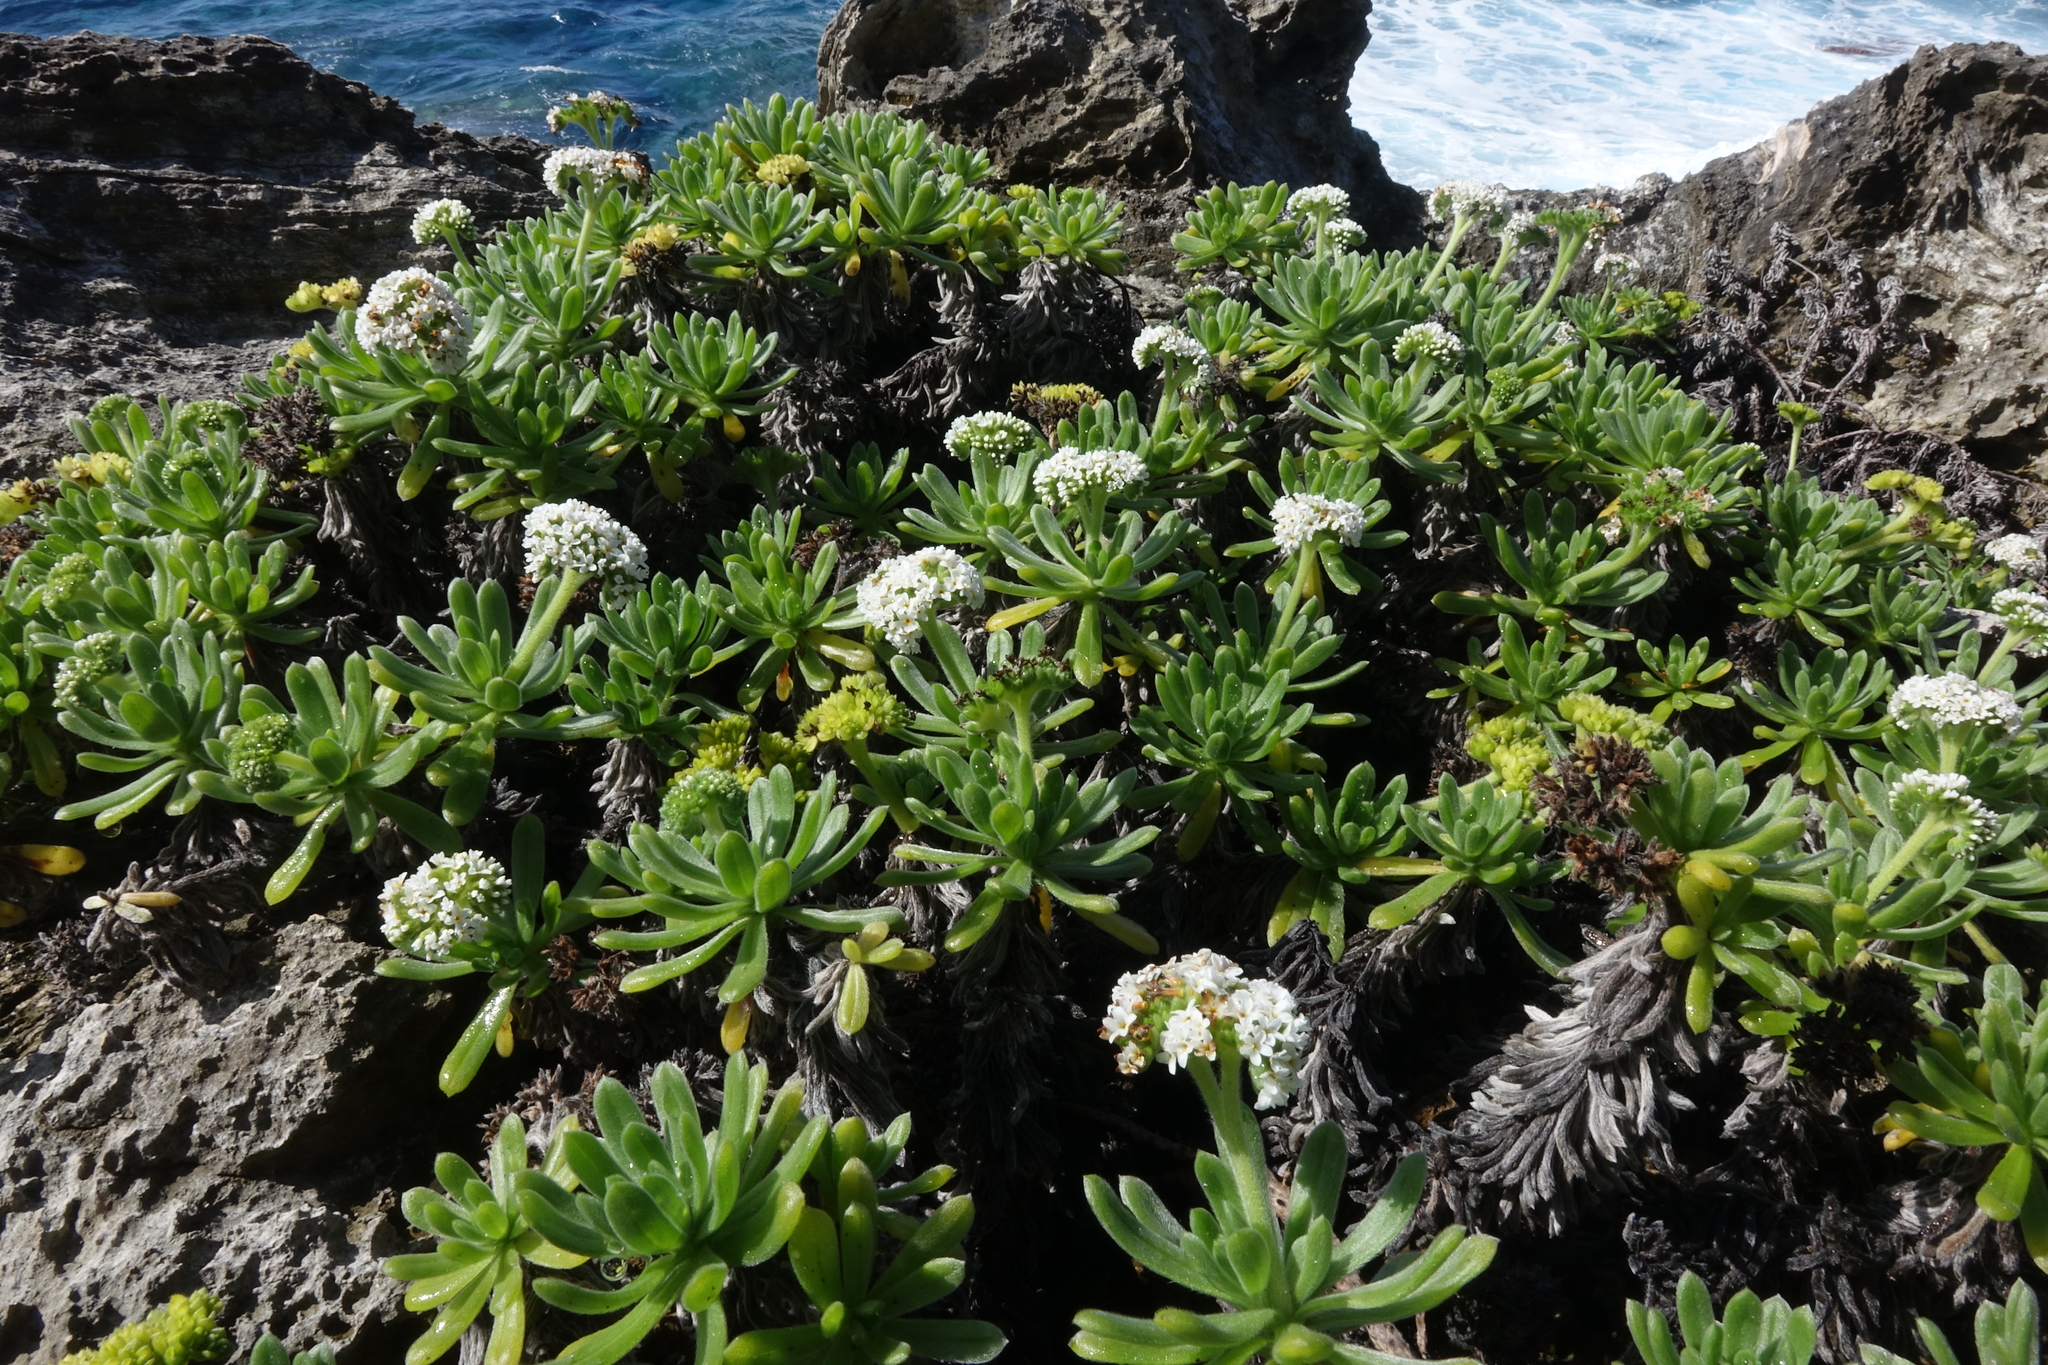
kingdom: Plantae
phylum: Tracheophyta
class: Magnoliopsida
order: Boraginales
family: Heliotropiaceae
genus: Heliotropium
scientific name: Heliotropium anomalum
